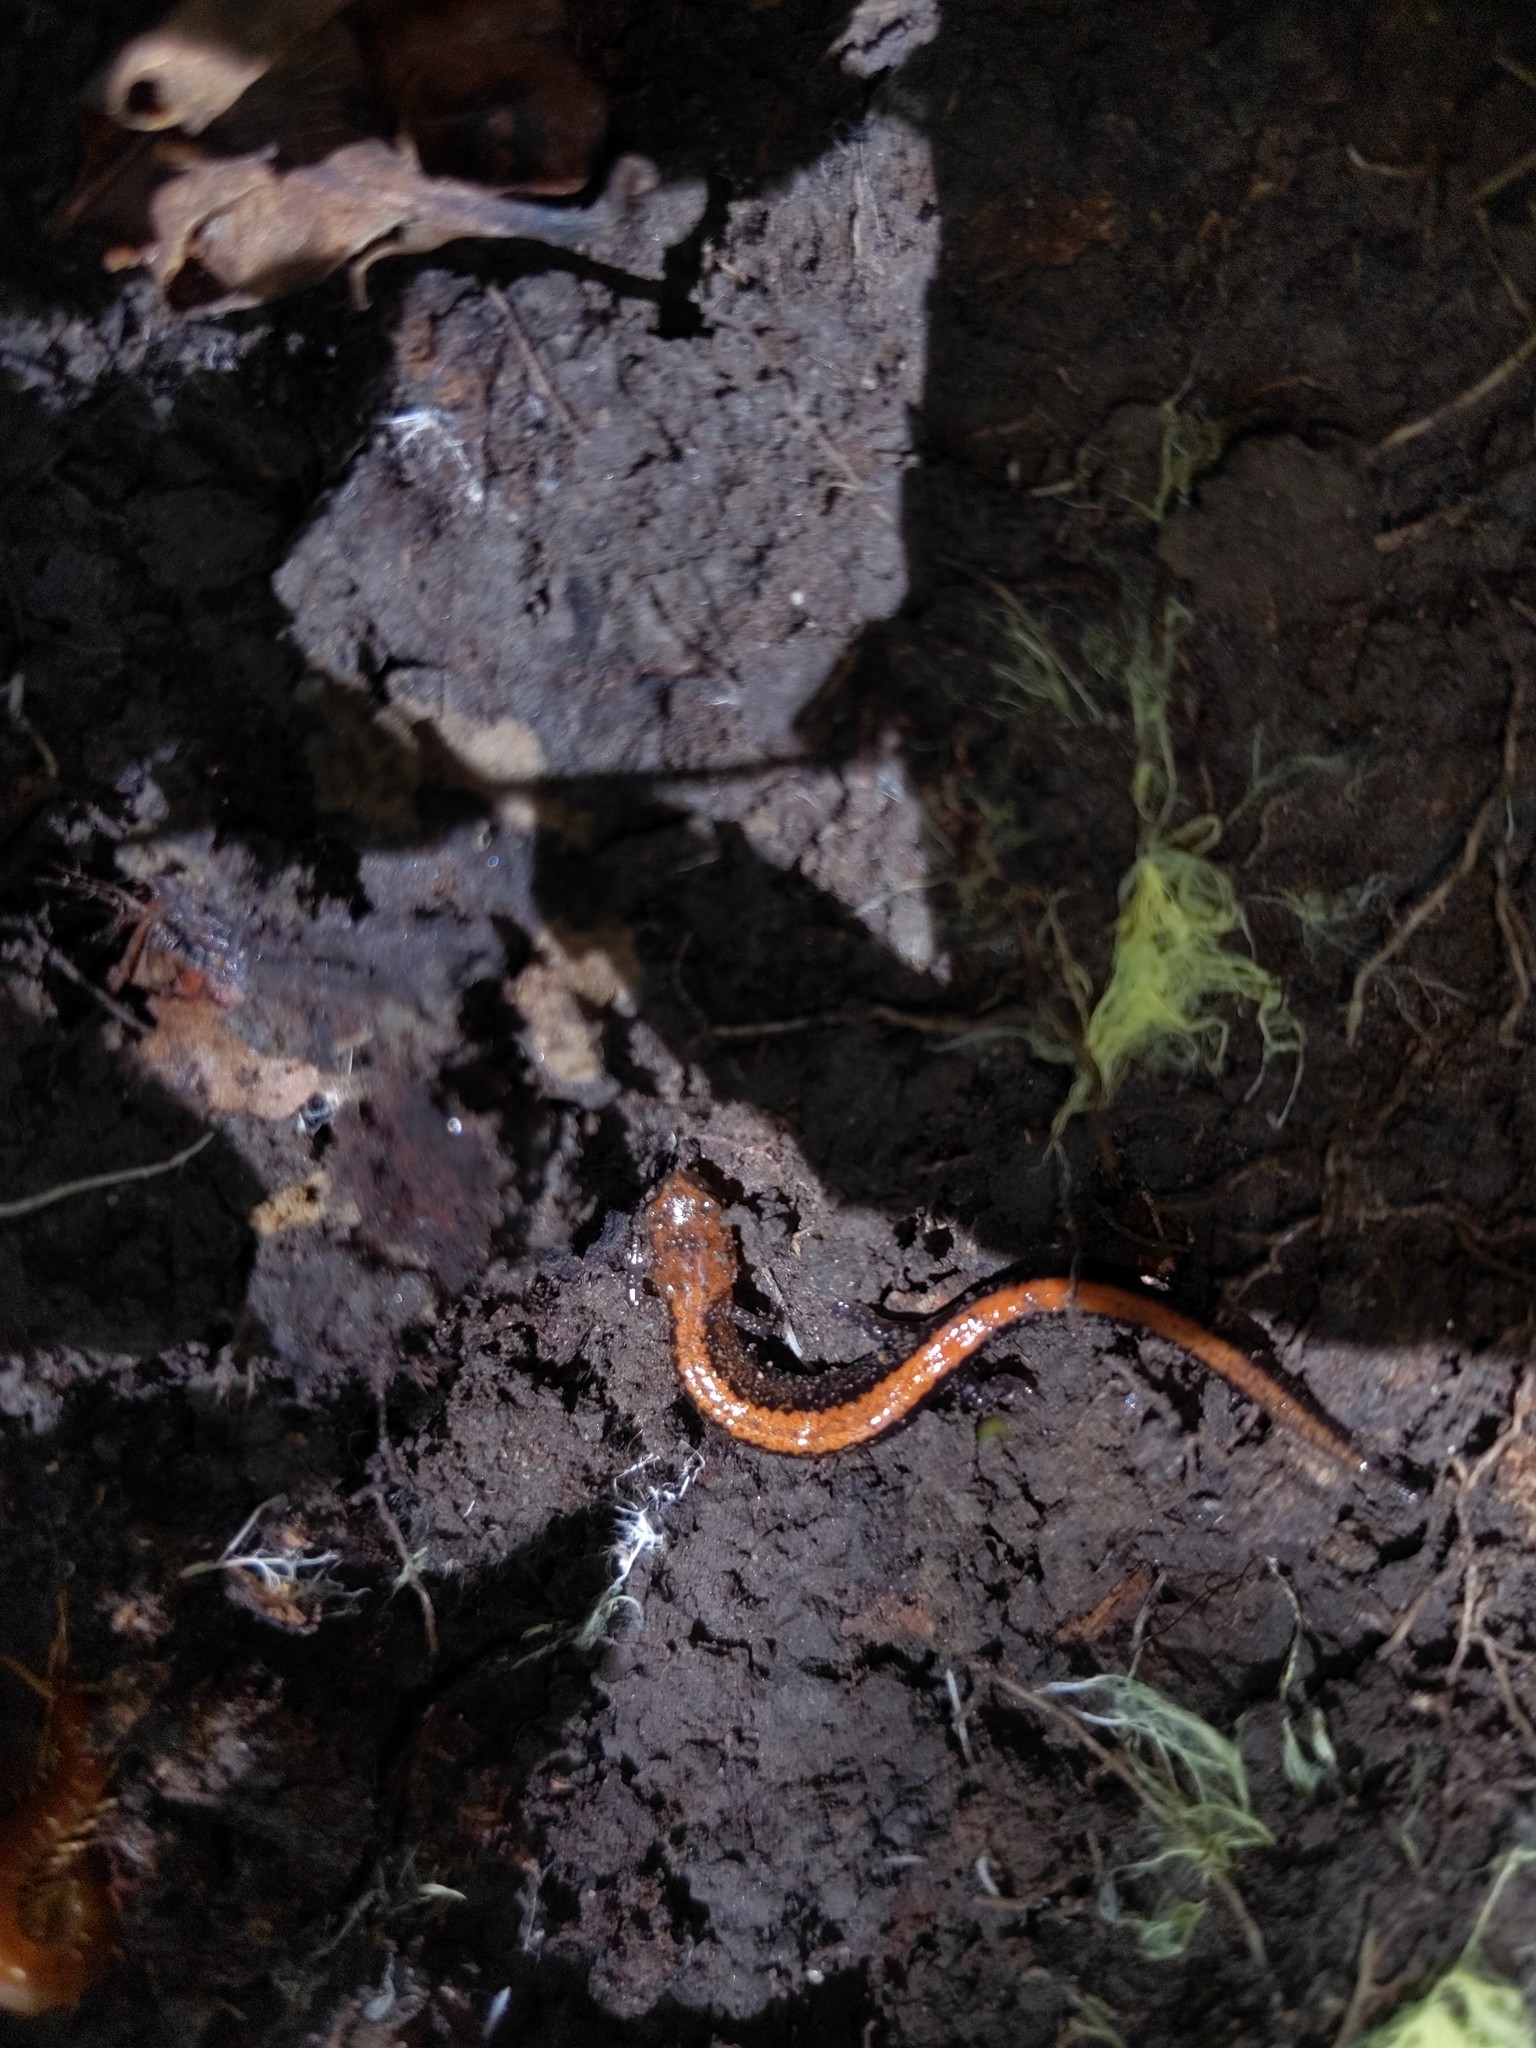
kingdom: Animalia
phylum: Chordata
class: Amphibia
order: Caudata
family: Plethodontidae
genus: Plethodon
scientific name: Plethodon cinereus
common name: Redback salamander
